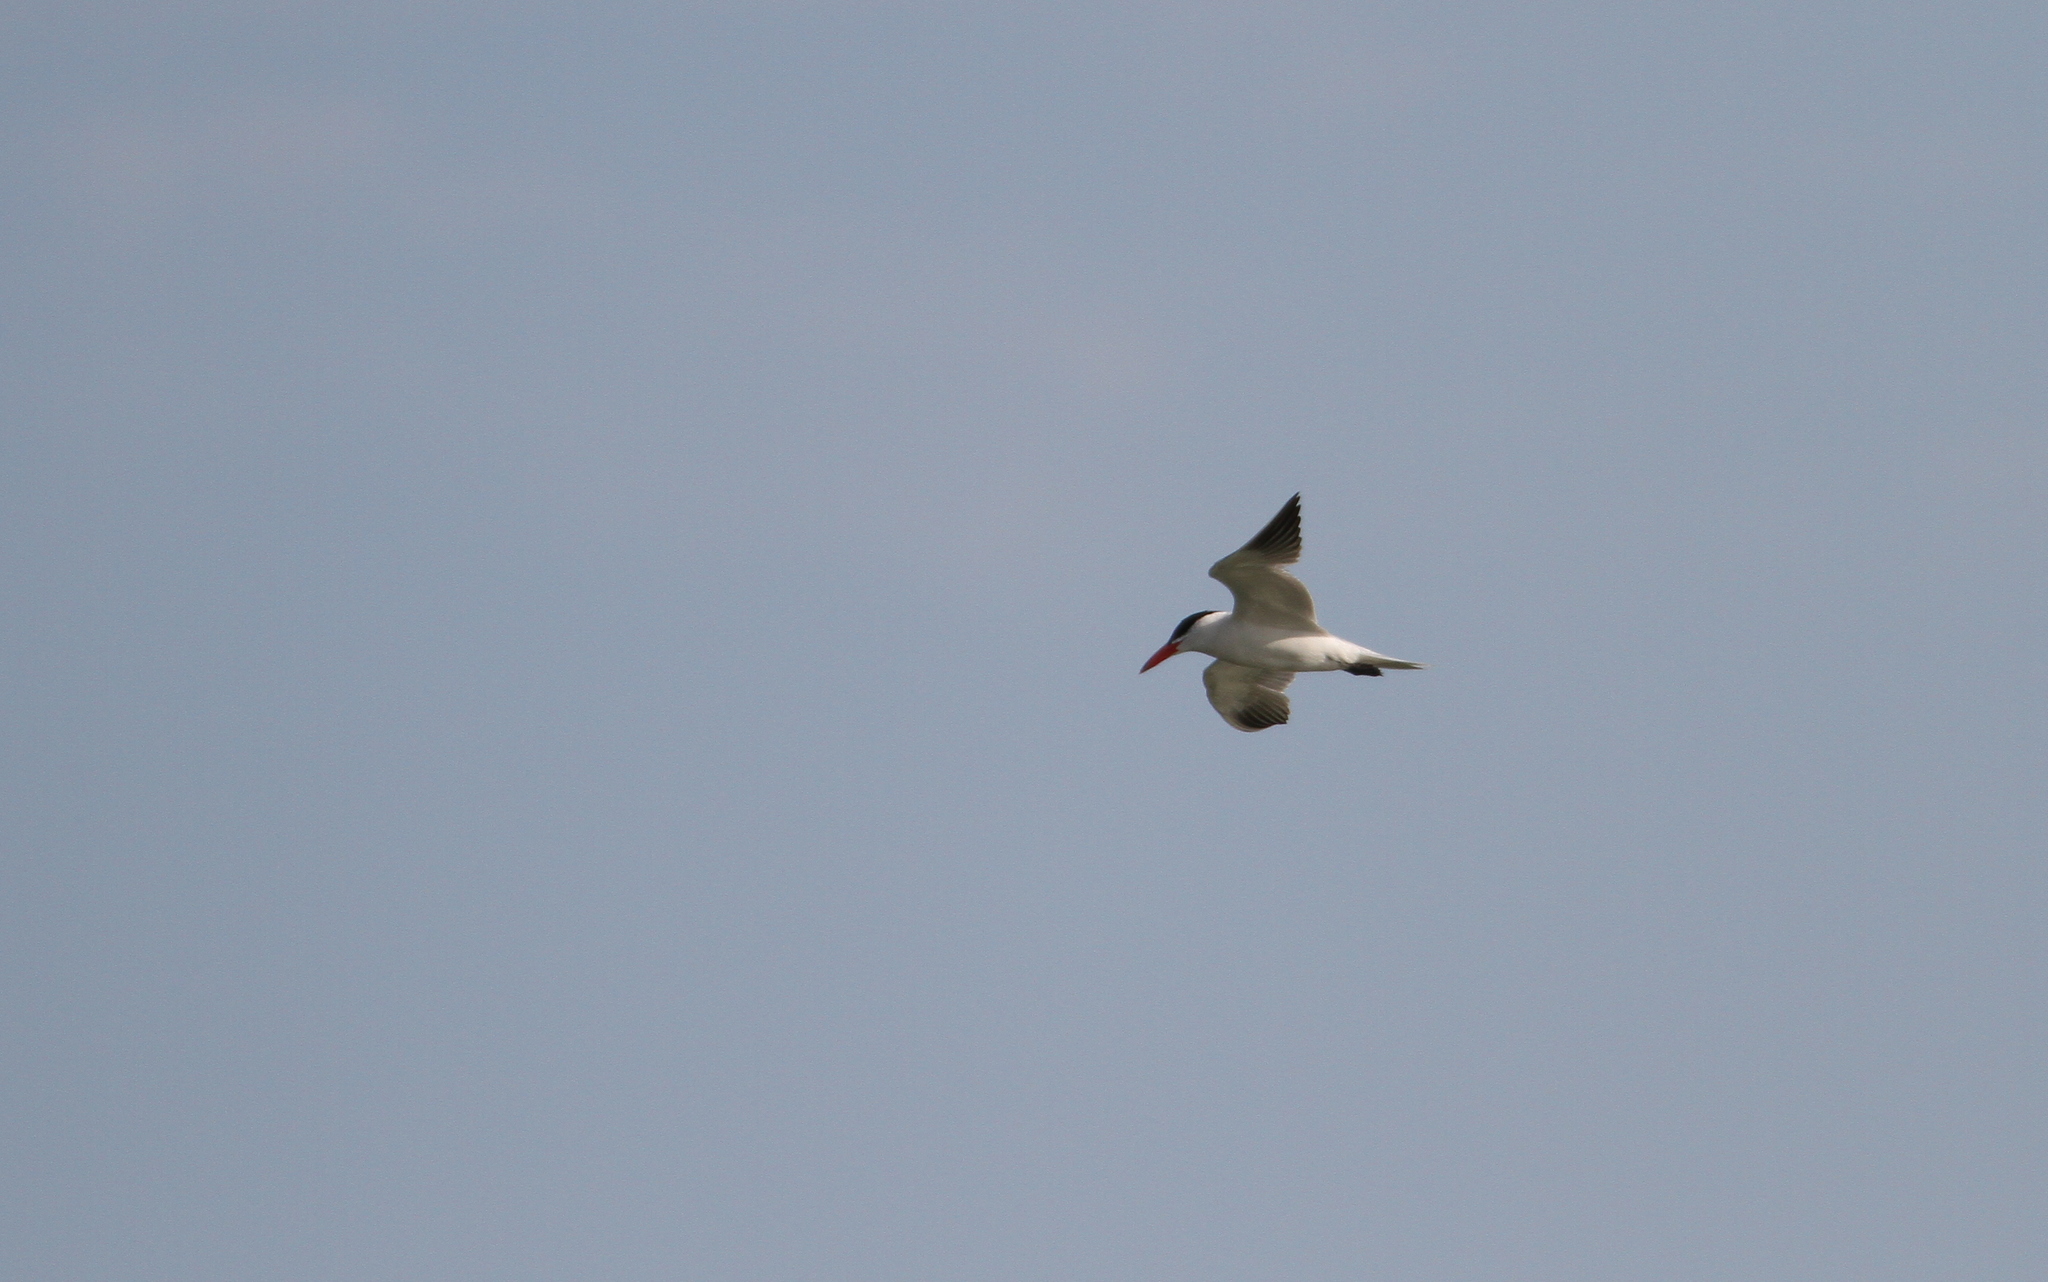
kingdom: Animalia
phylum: Chordata
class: Aves
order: Charadriiformes
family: Laridae
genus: Hydroprogne
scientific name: Hydroprogne caspia
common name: Caspian tern
